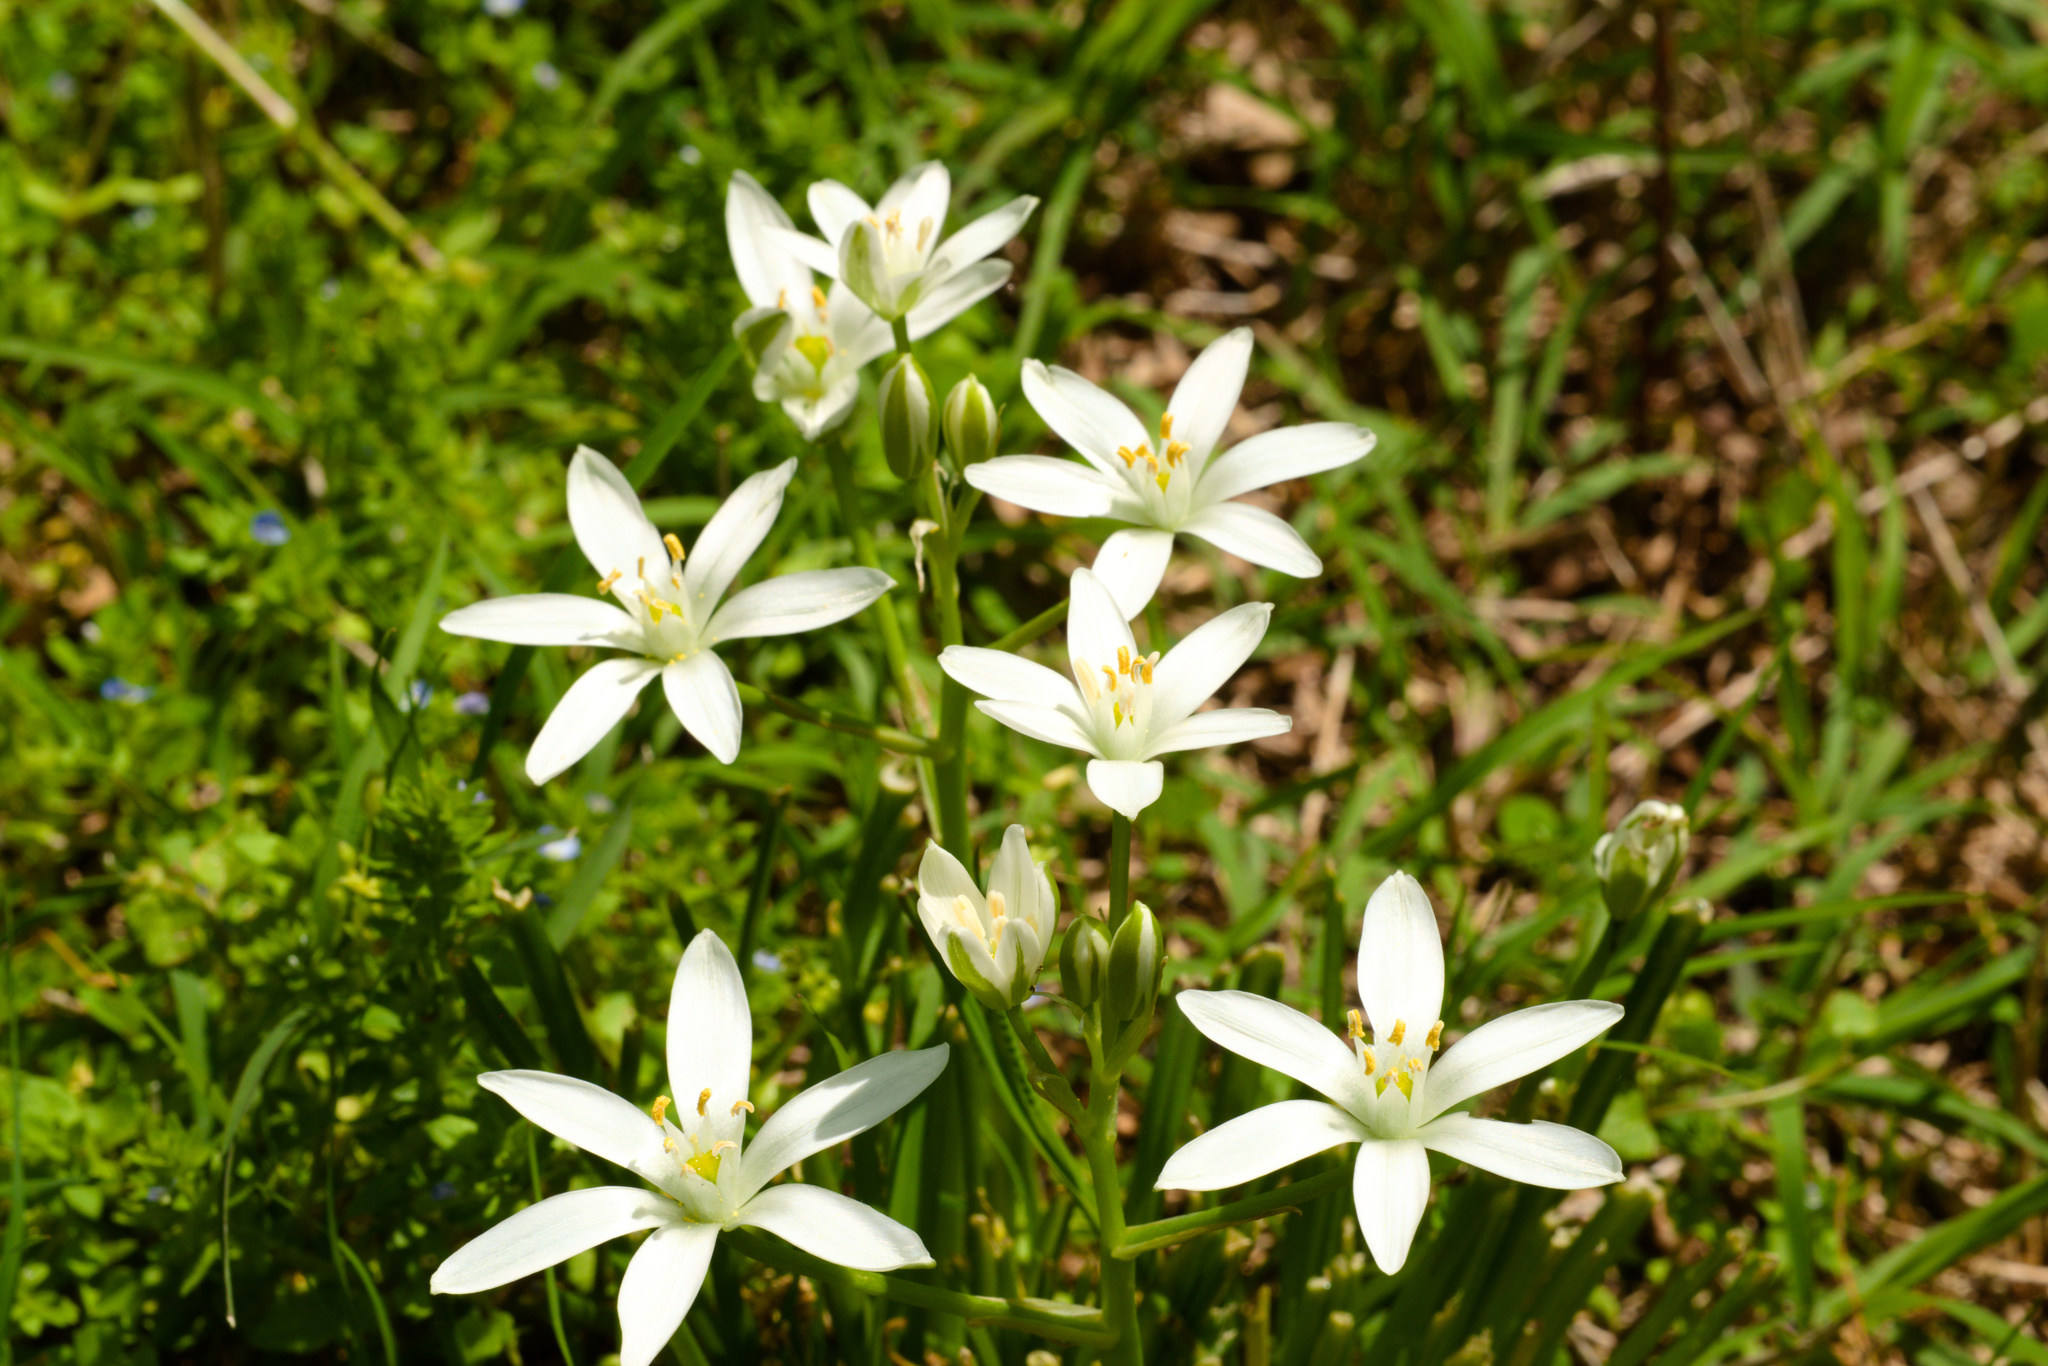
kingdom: Plantae
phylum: Tracheophyta
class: Liliopsida
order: Asparagales
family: Asparagaceae
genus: Ornithogalum
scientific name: Ornithogalum umbellatum
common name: Garden star-of-bethlehem
